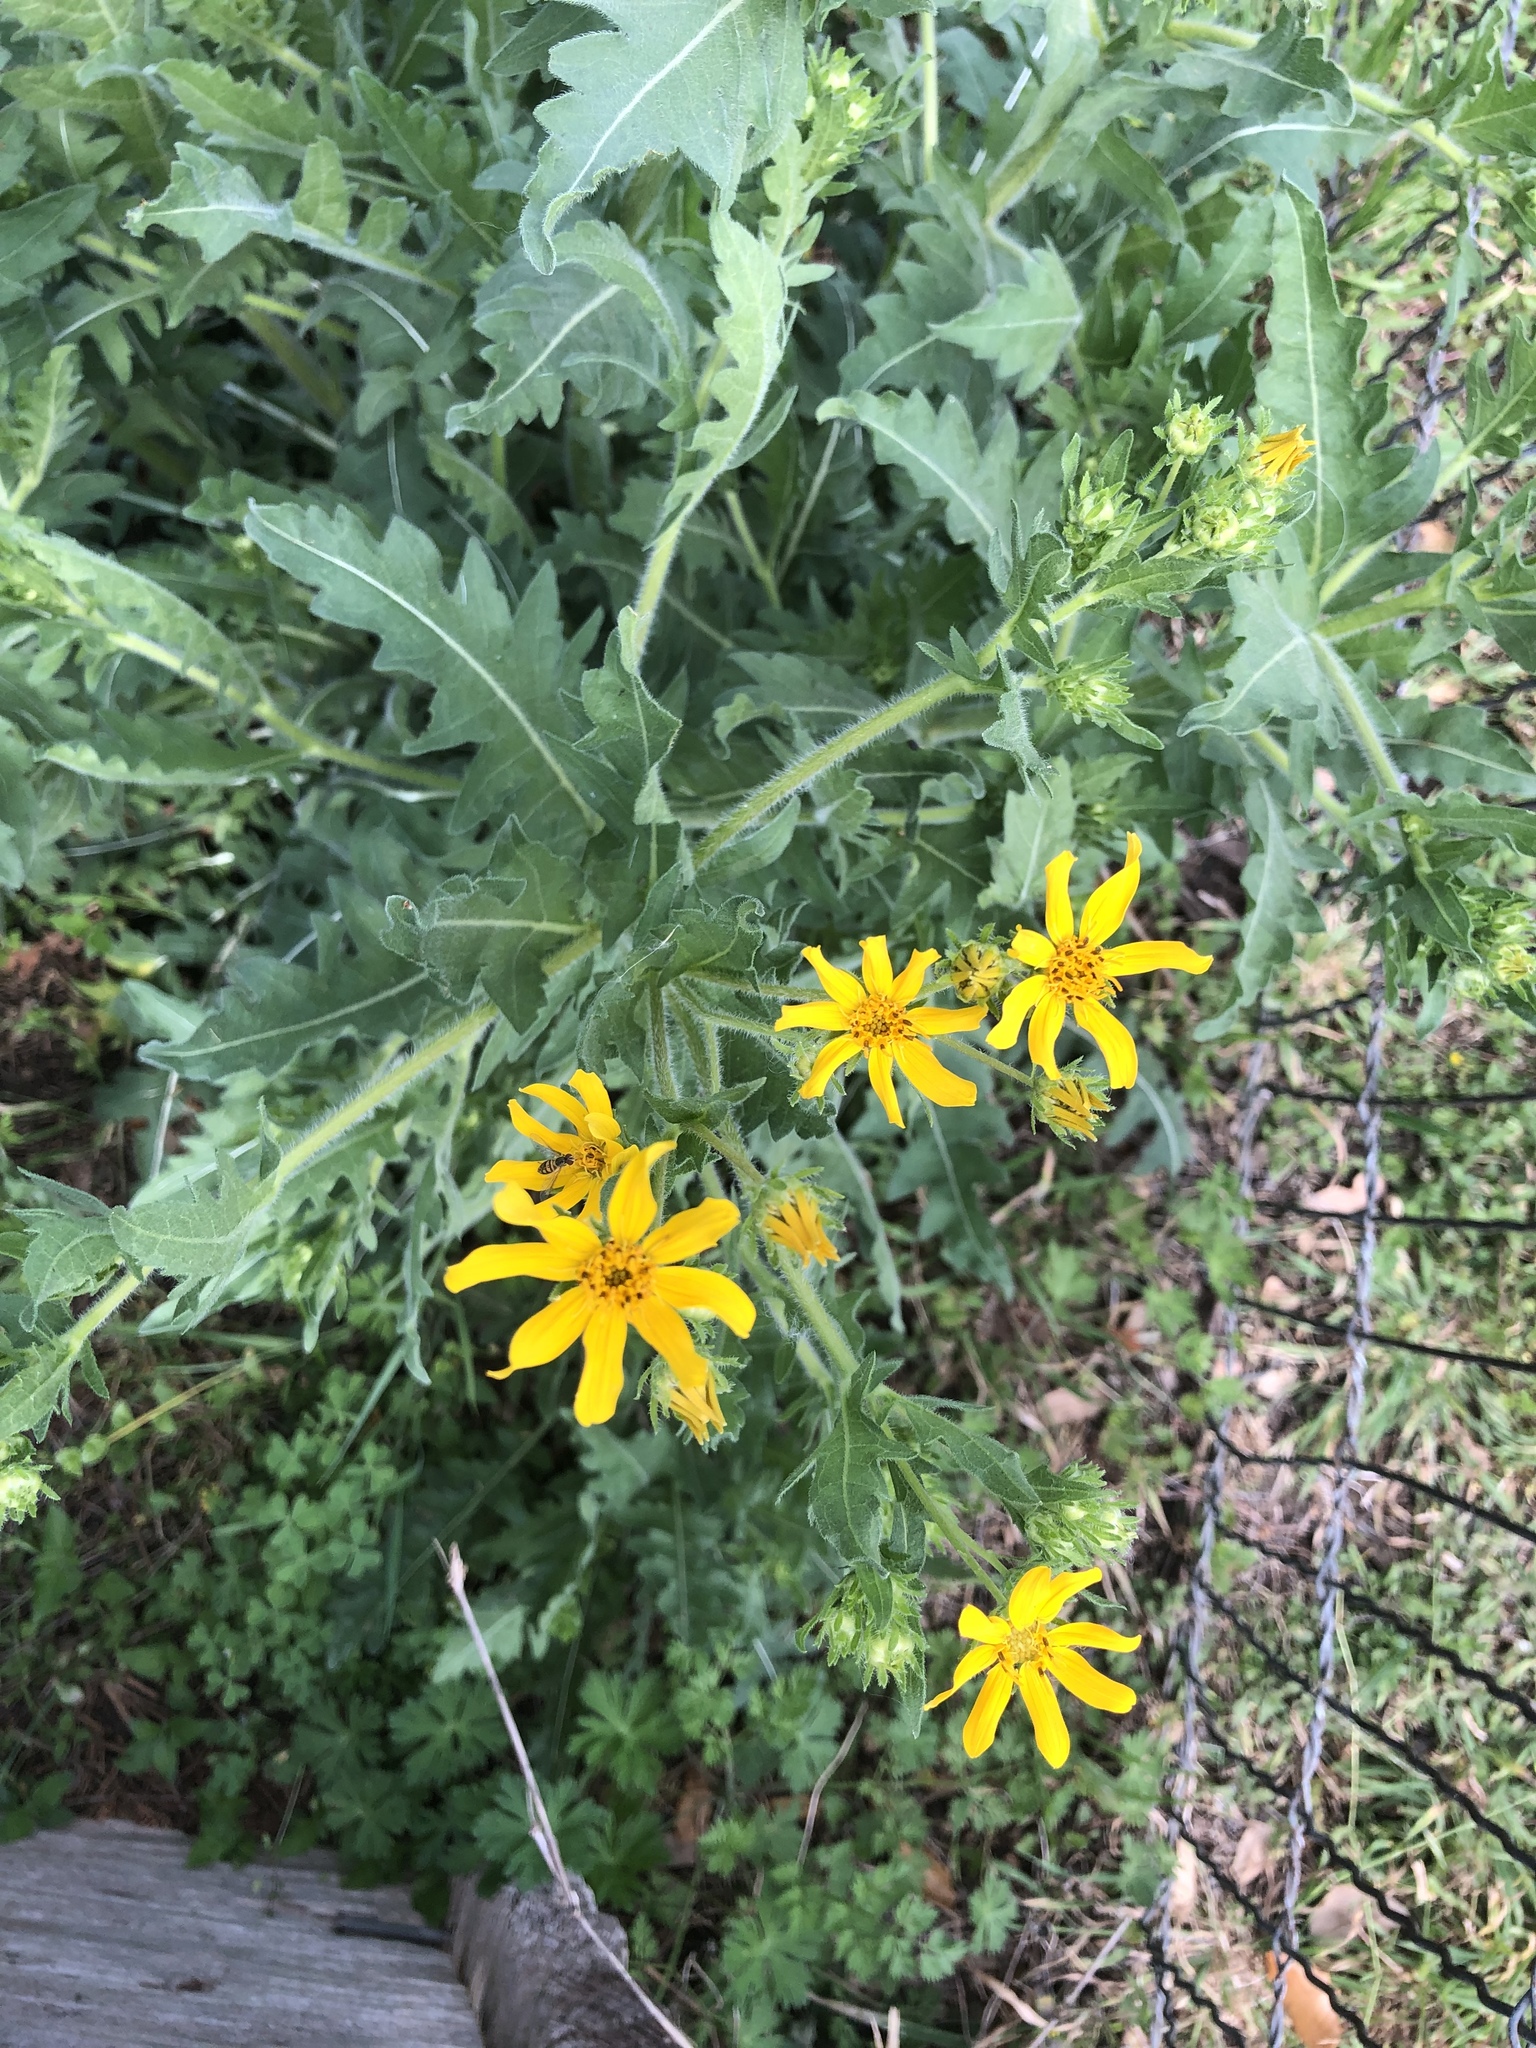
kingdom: Plantae
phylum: Tracheophyta
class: Magnoliopsida
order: Asterales
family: Asteraceae
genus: Engelmannia
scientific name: Engelmannia peristenia
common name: Engelmann's daisy
